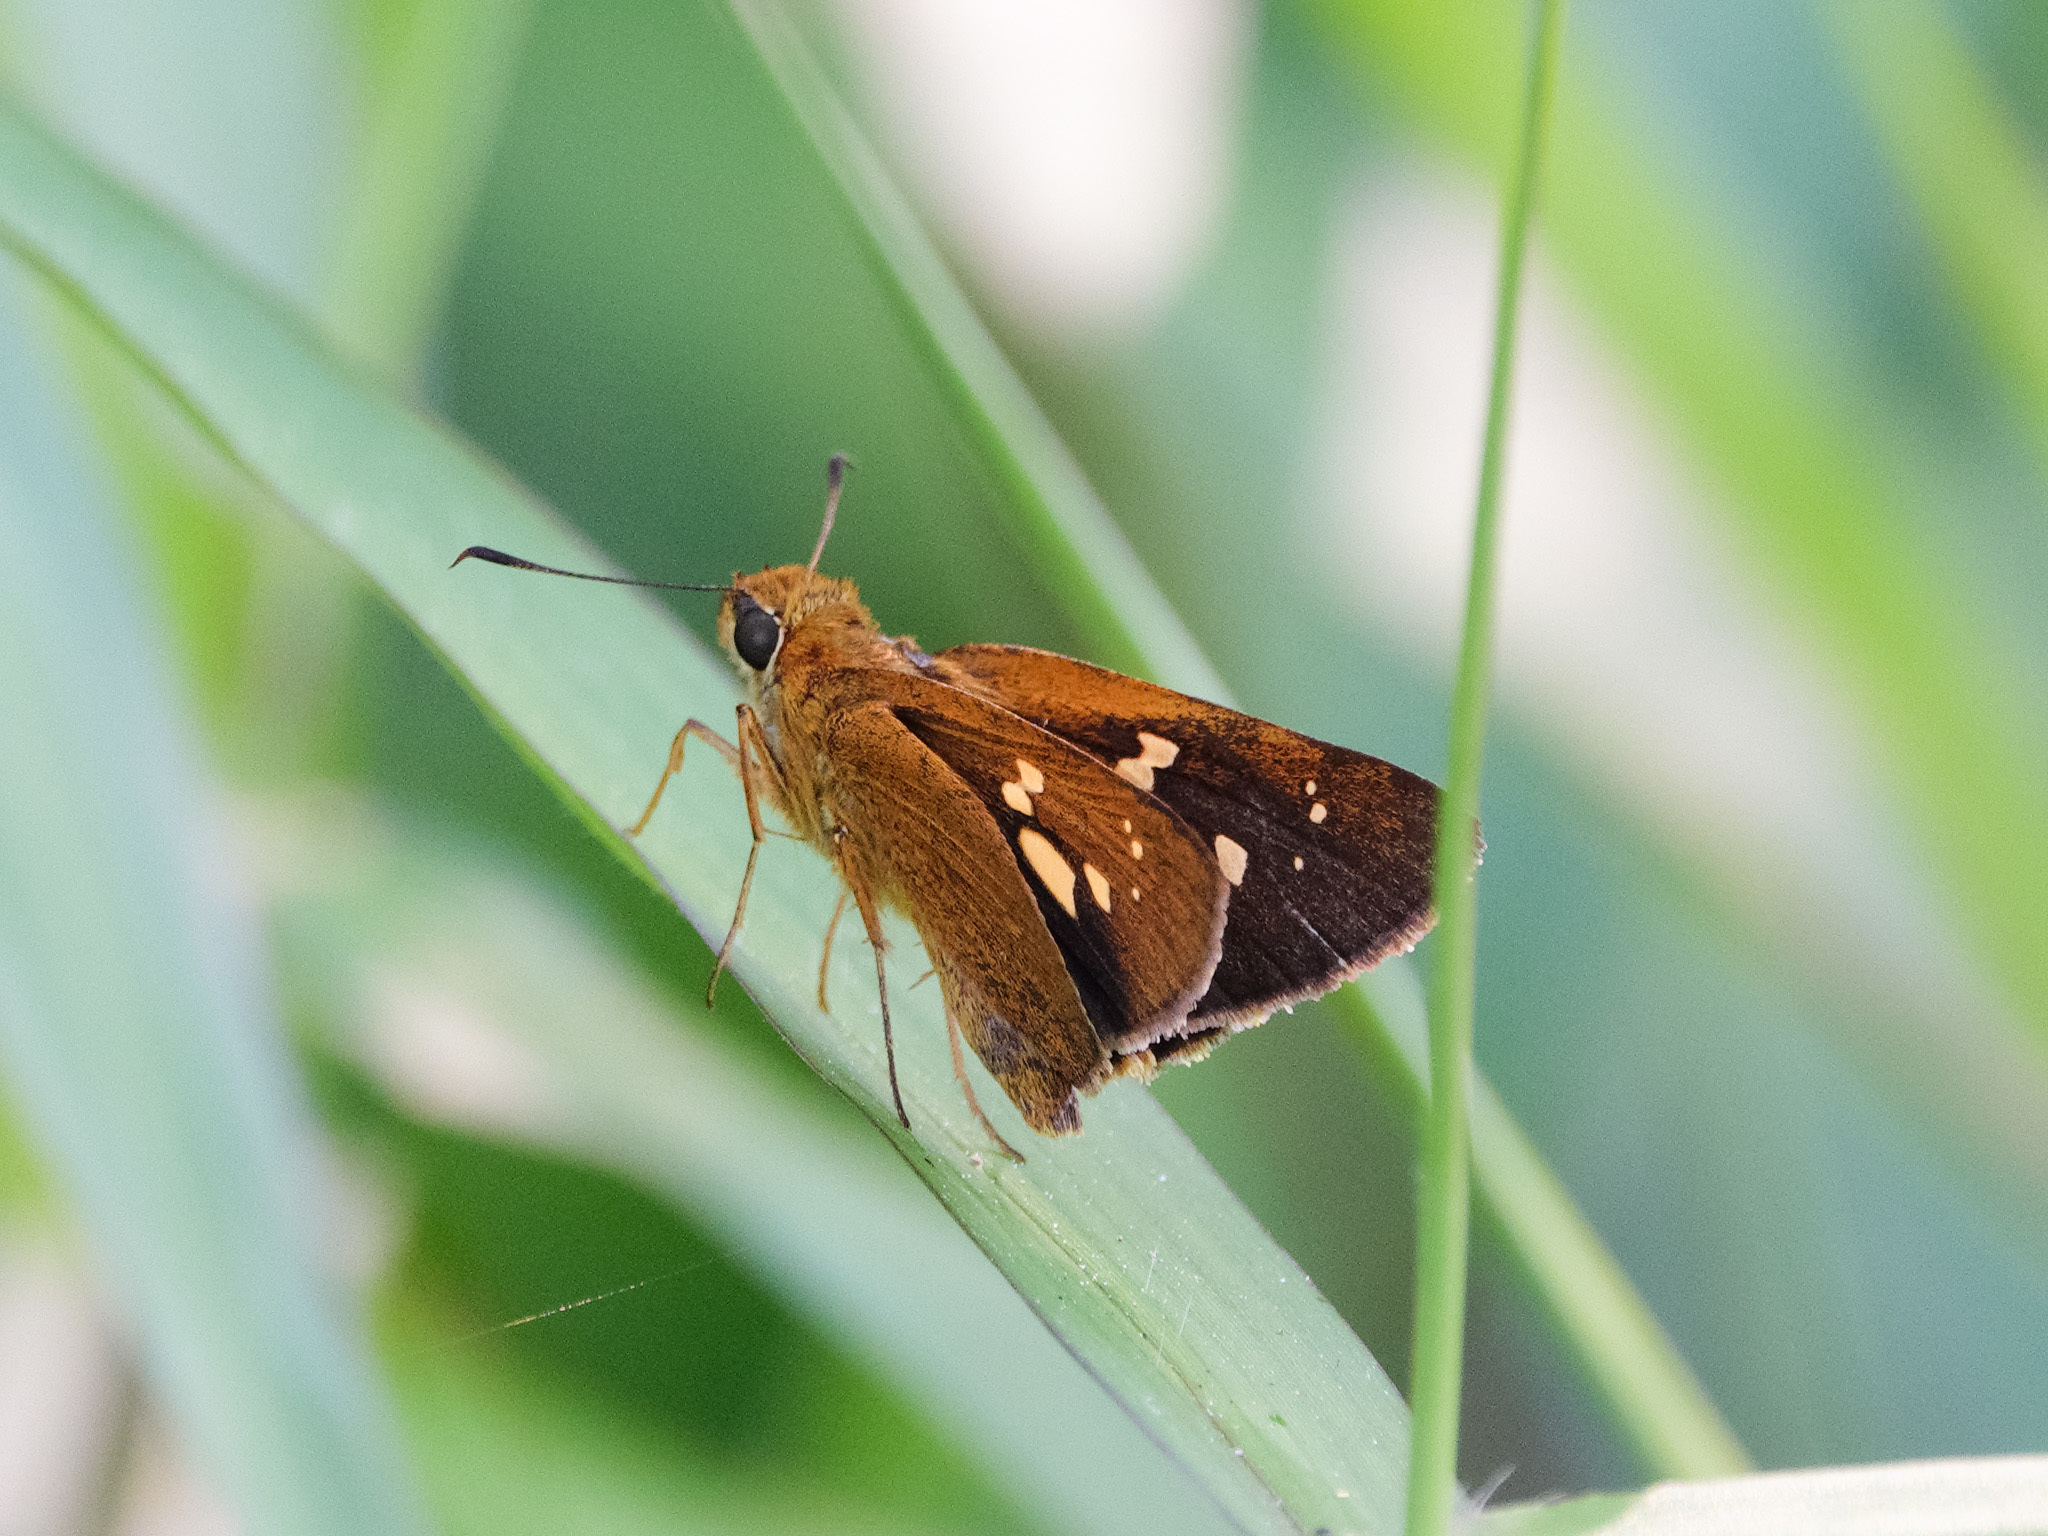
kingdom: Animalia
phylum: Arthropoda
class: Insecta
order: Lepidoptera
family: Hesperiidae
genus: Polytremis
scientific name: Polytremis lubricans
